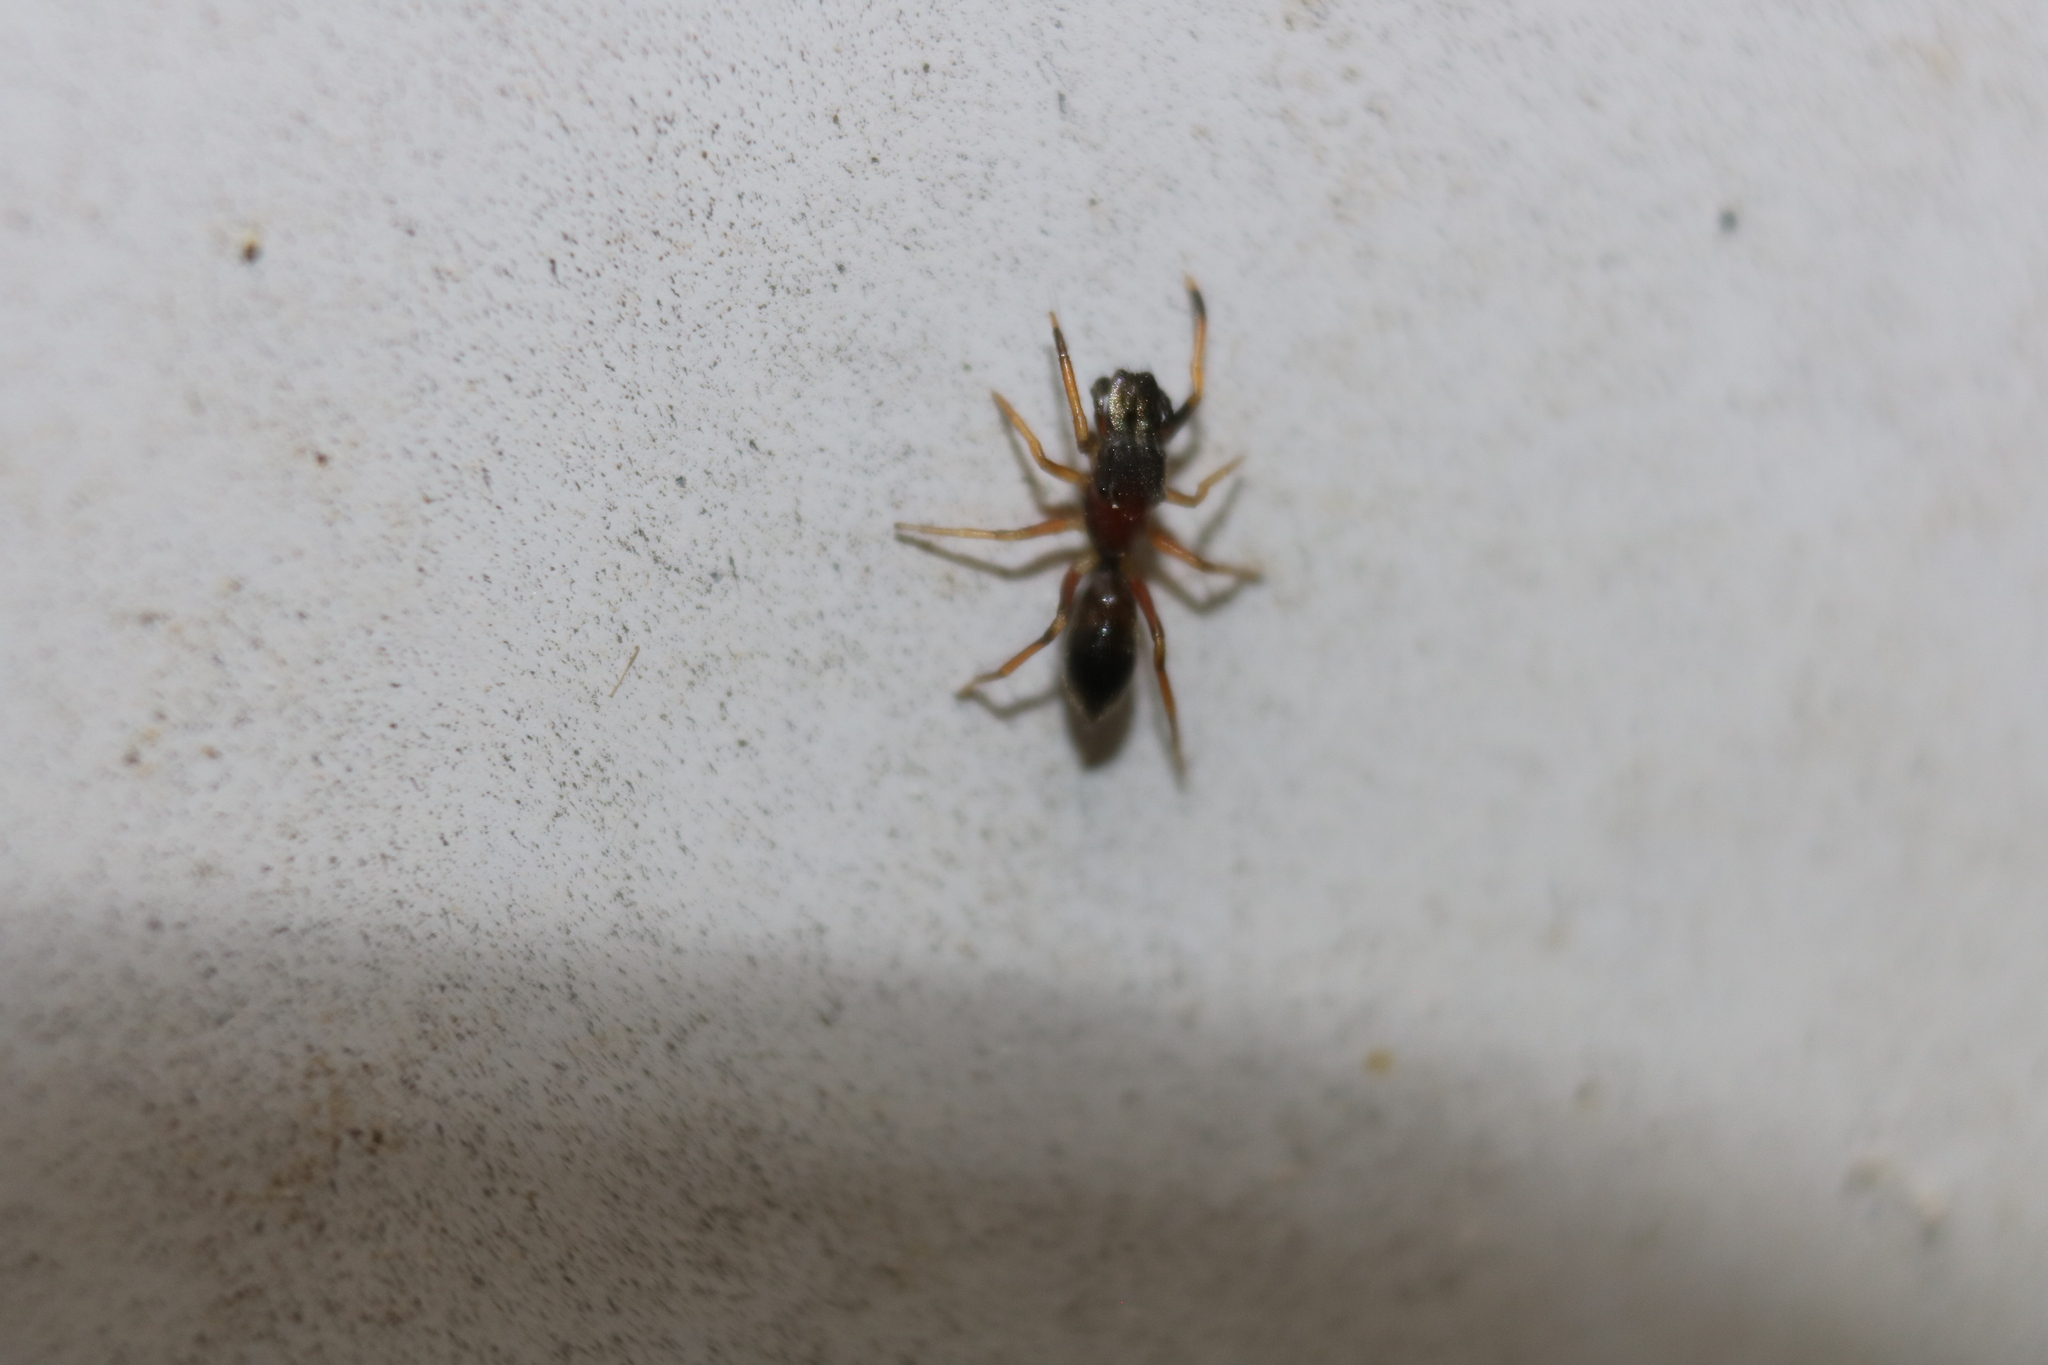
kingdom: Animalia
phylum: Arthropoda
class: Arachnida
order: Araneae
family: Salticidae
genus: Myrmarachne
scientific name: Myrmarachne formicaria
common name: Ant mimic jumping spider
